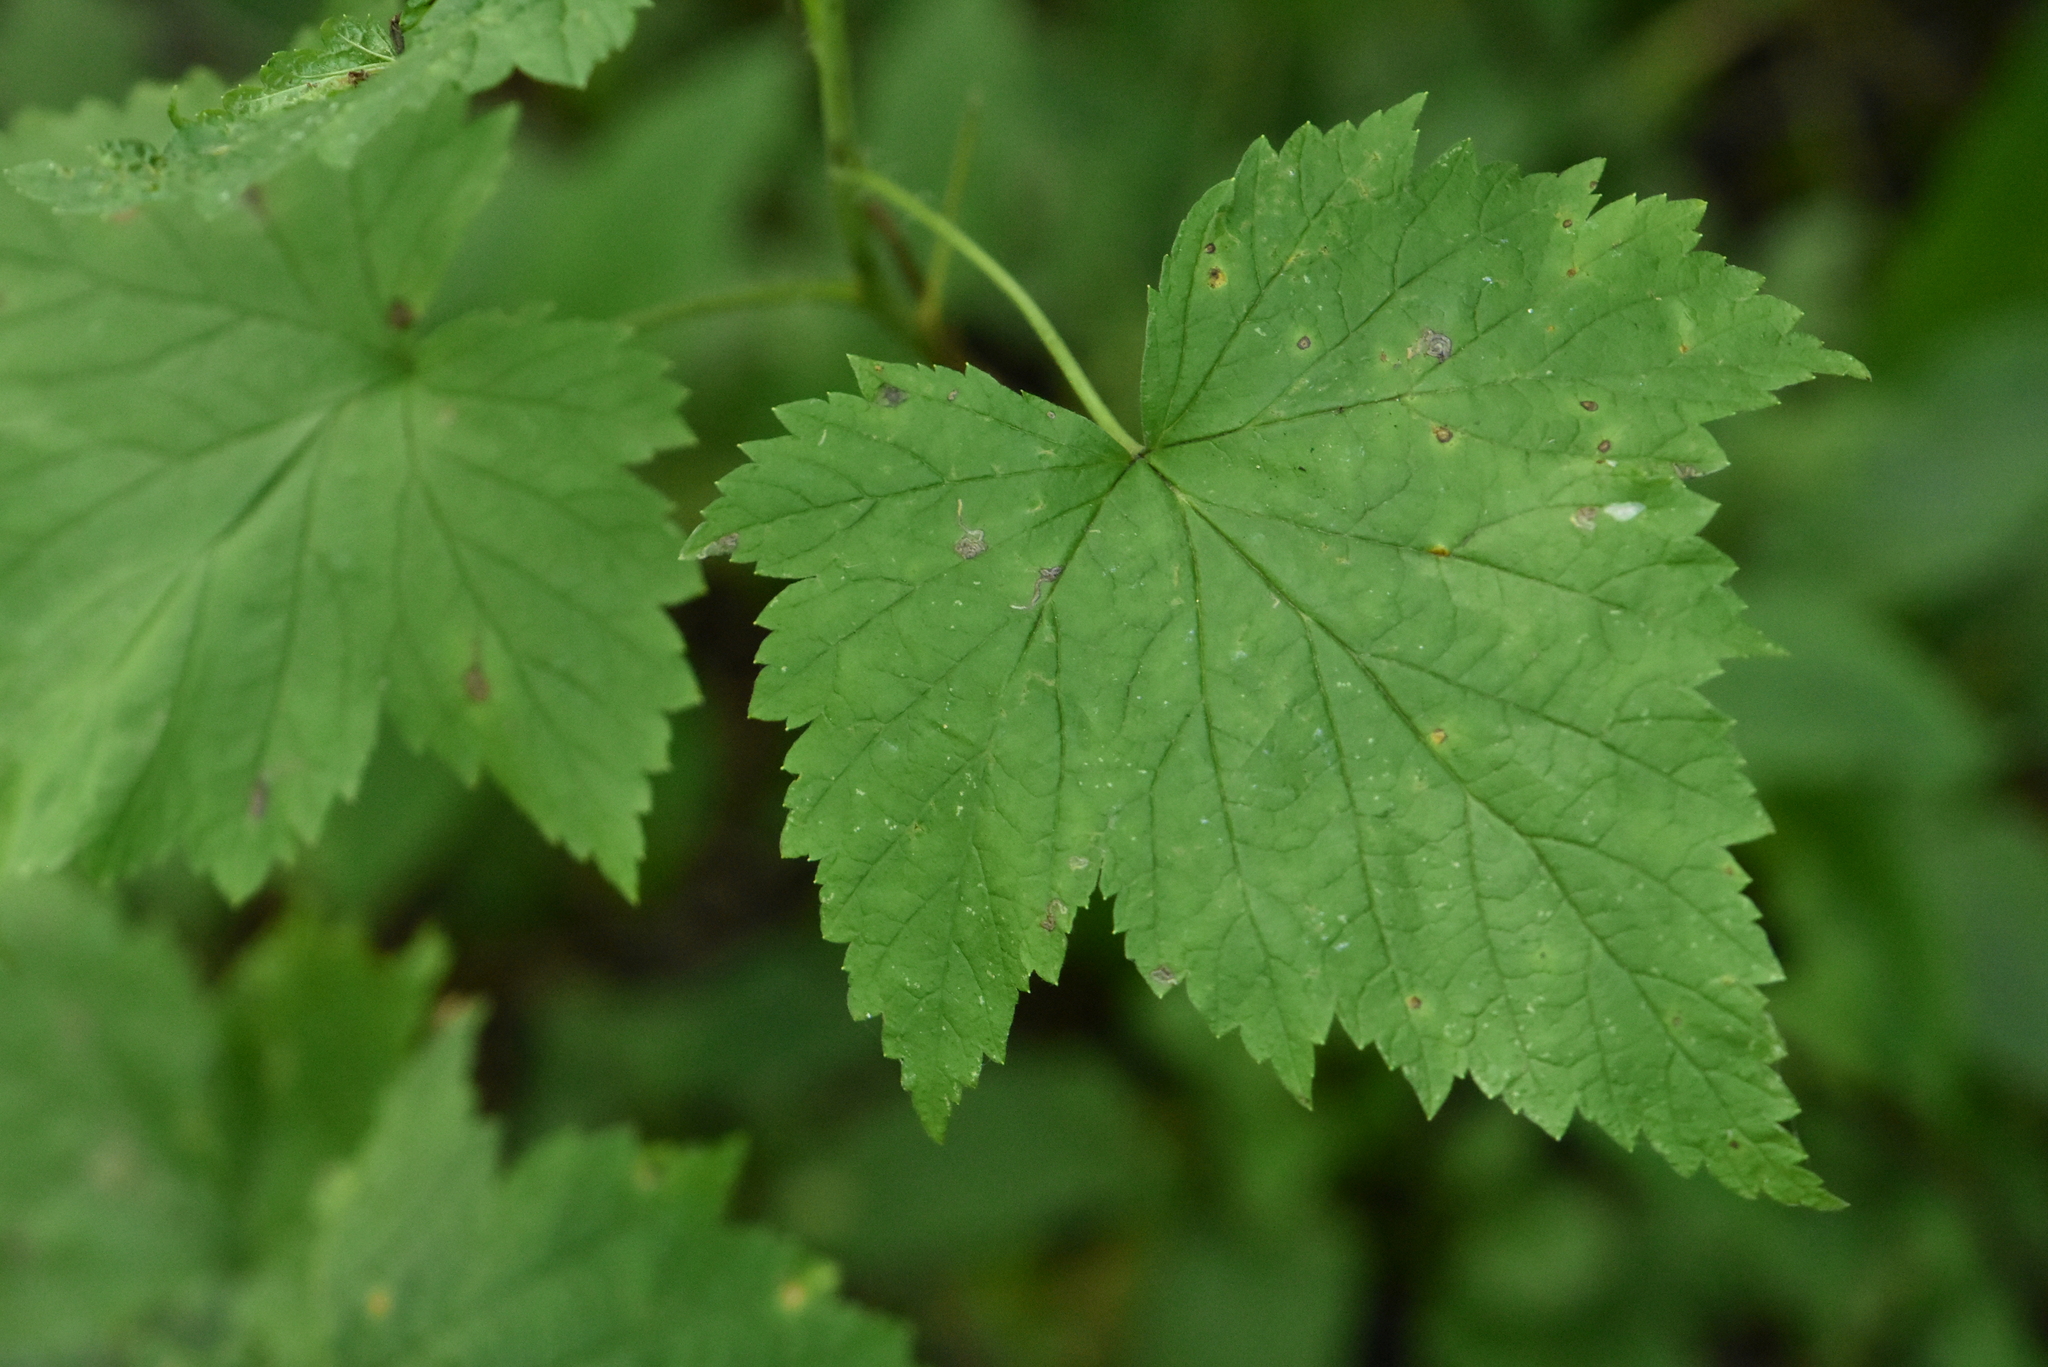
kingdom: Plantae
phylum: Tracheophyta
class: Magnoliopsida
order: Saxifragales
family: Grossulariaceae
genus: Ribes
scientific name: Ribes nigrum
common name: Black currant
